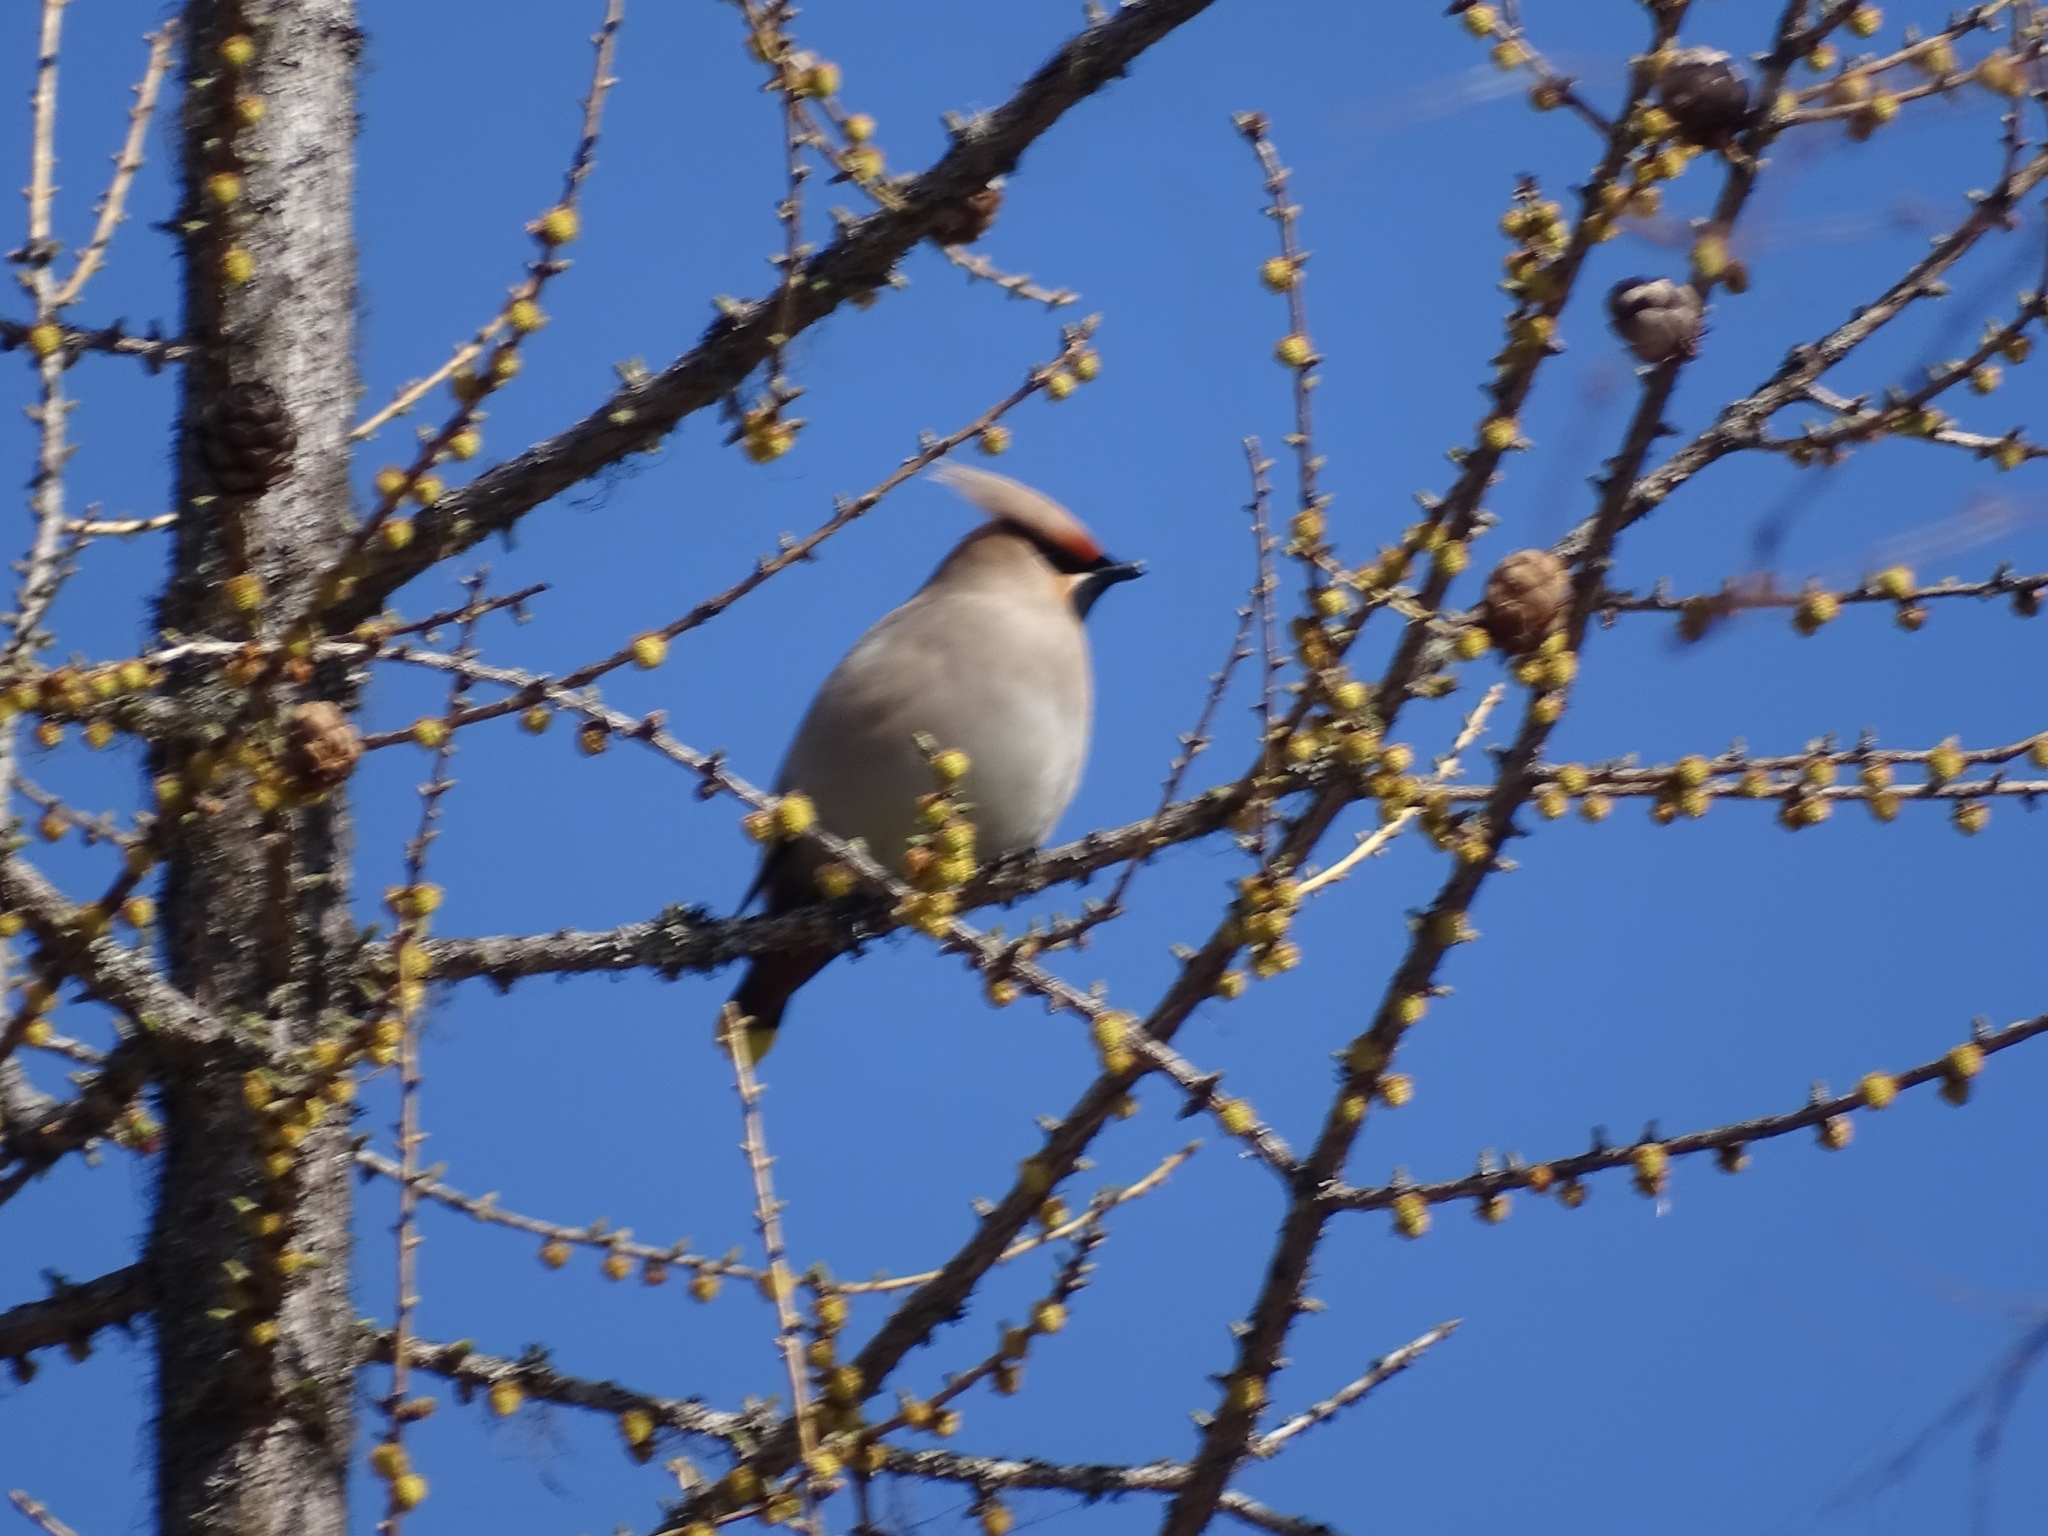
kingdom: Animalia
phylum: Chordata
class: Aves
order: Passeriformes
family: Bombycillidae
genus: Bombycilla
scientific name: Bombycilla garrulus
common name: Bohemian waxwing
